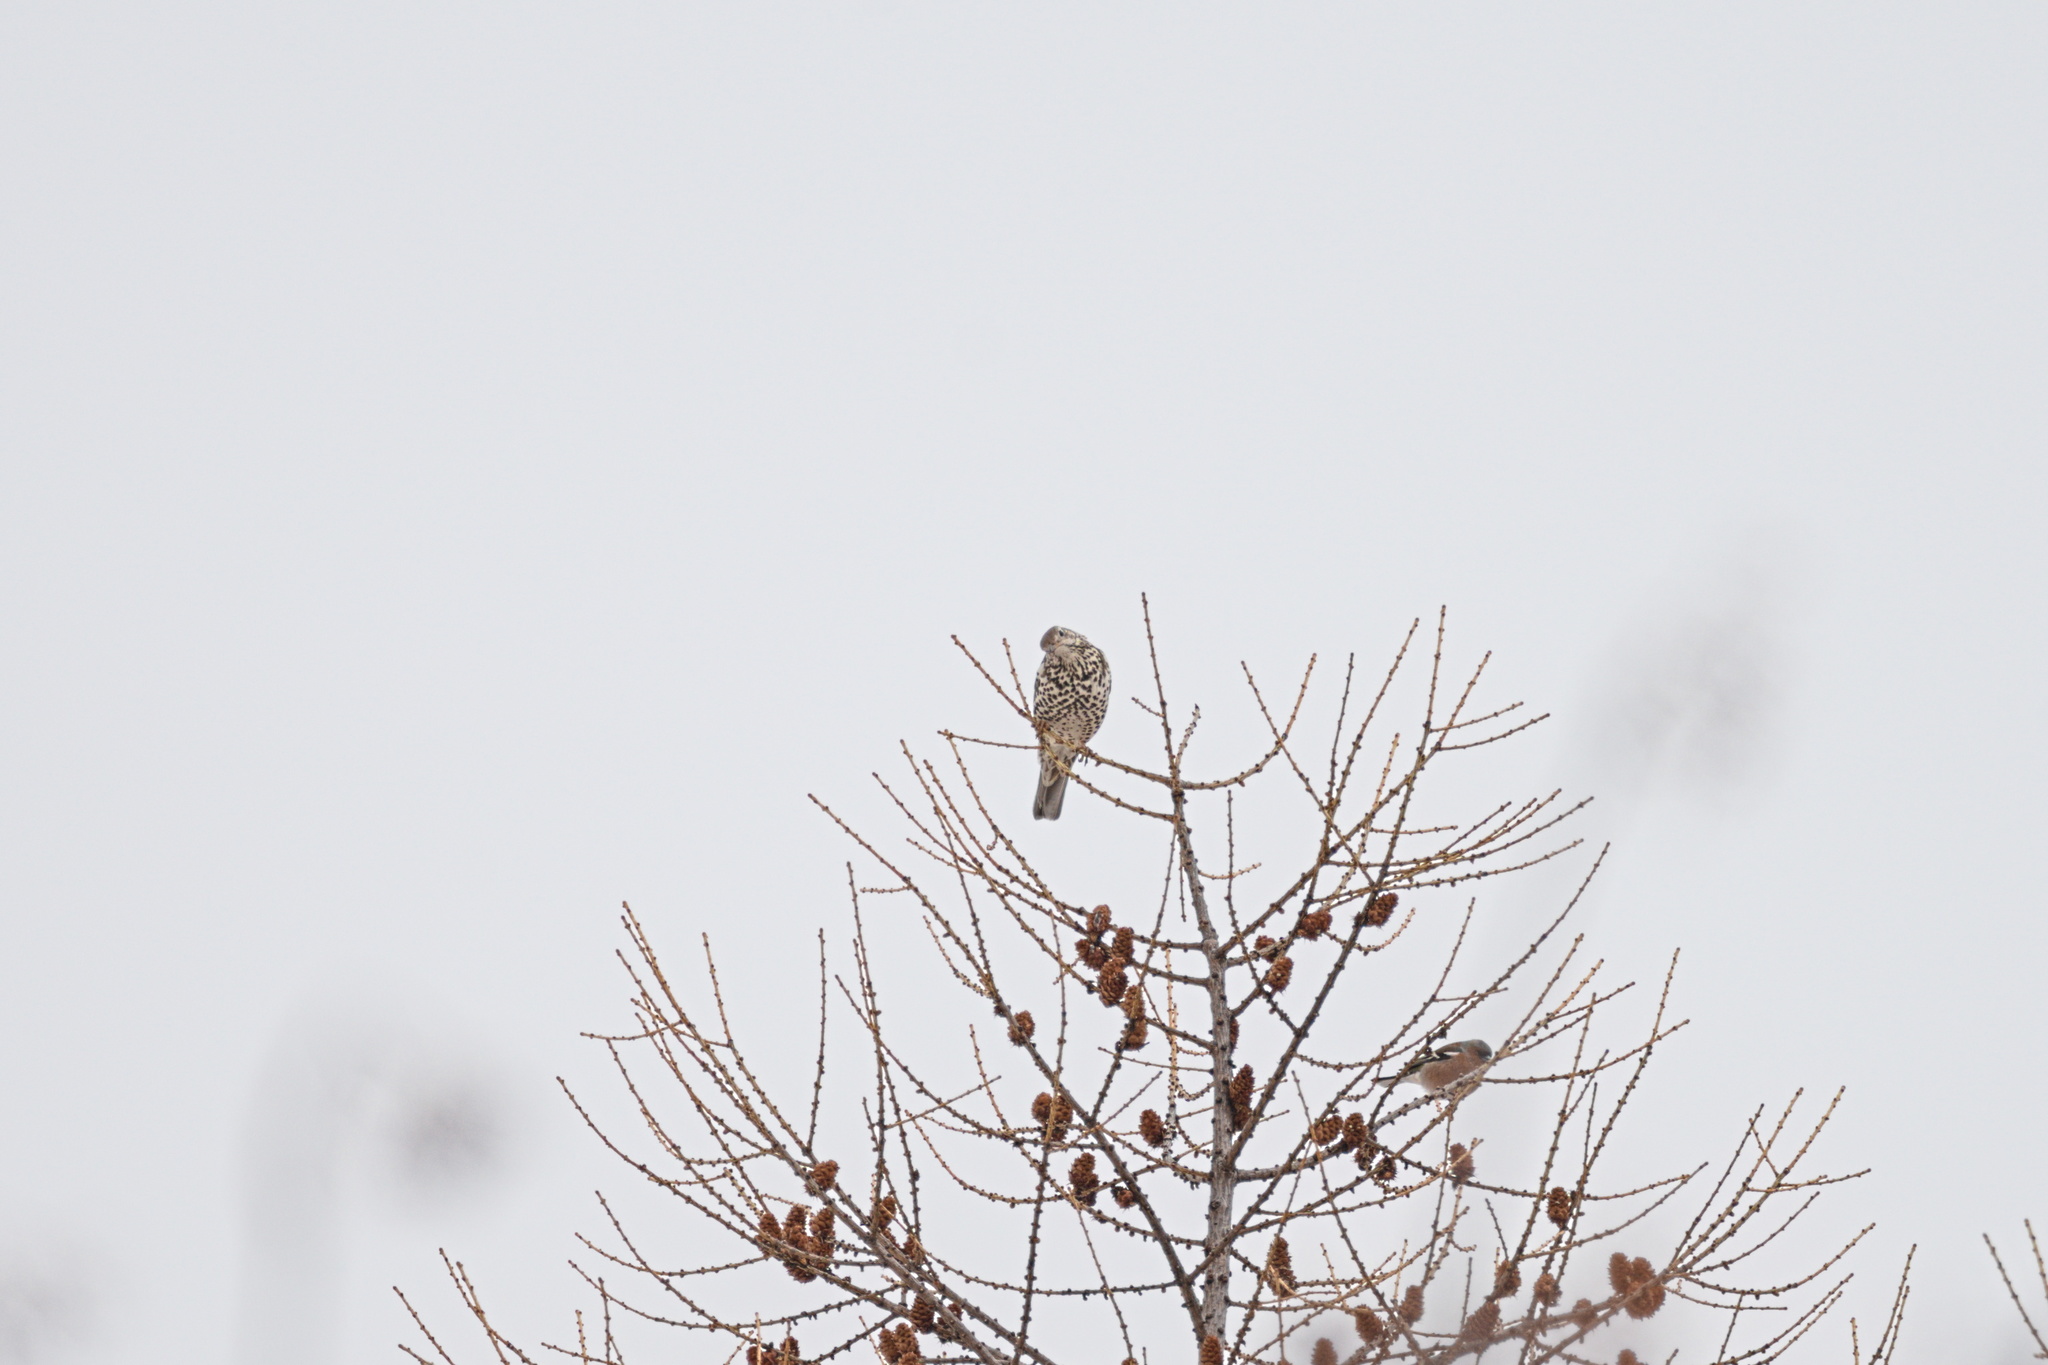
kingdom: Animalia
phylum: Chordata
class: Aves
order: Passeriformes
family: Turdidae
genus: Turdus
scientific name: Turdus viscivorus
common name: Mistle thrush
